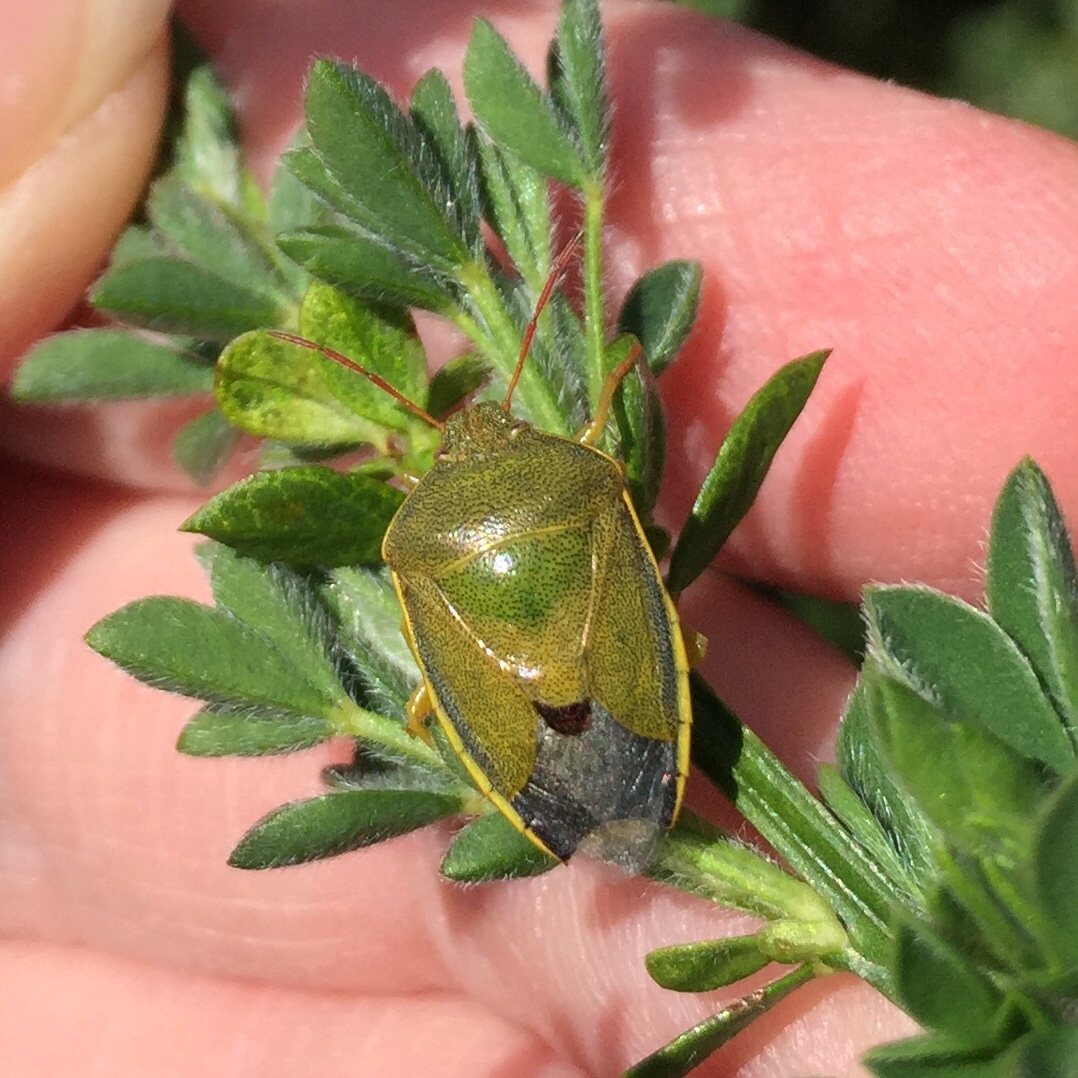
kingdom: Animalia
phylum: Arthropoda
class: Insecta
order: Hemiptera
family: Pentatomidae
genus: Piezodorus
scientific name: Piezodorus lituratus
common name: Stink bug
